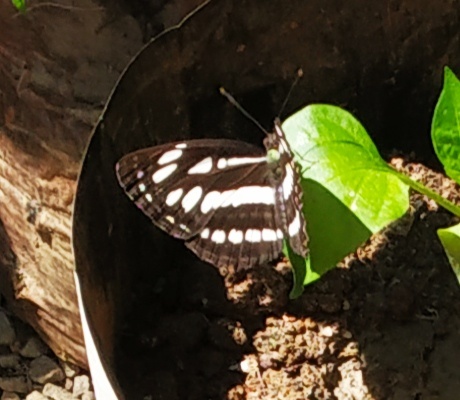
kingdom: Animalia
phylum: Arthropoda
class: Insecta
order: Lepidoptera
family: Nymphalidae
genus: Neptis
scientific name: Neptis hylas
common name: Common sailer
